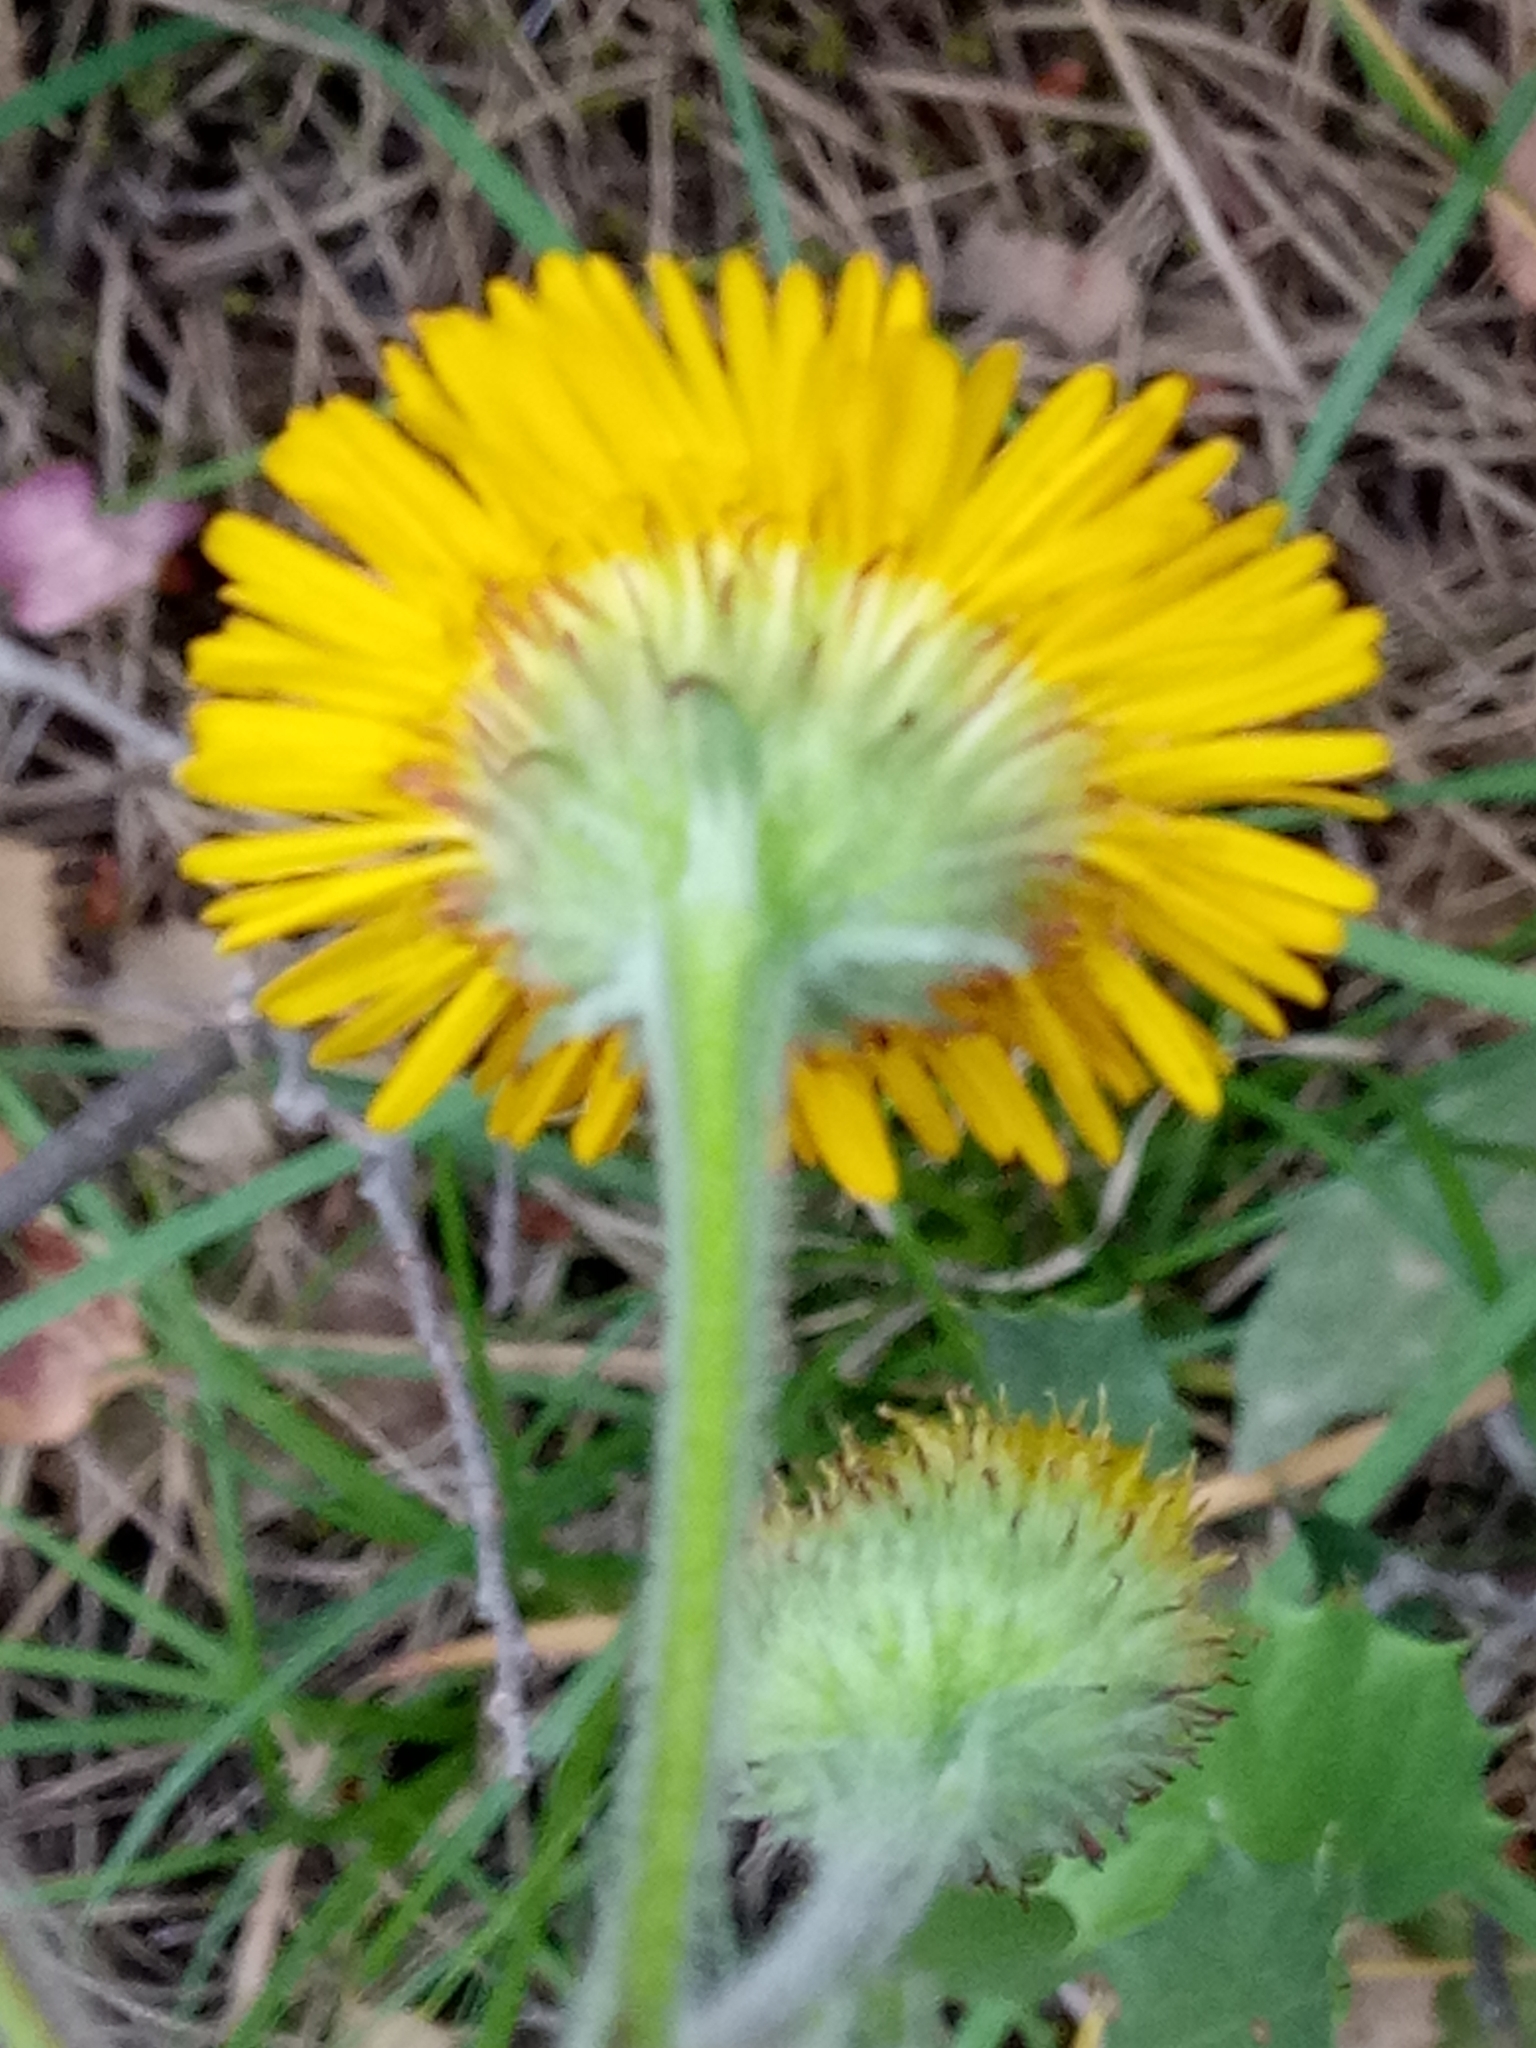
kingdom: Plantae
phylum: Tracheophyta
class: Magnoliopsida
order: Asterales
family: Asteraceae
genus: Pulicaria
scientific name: Pulicaria odora
